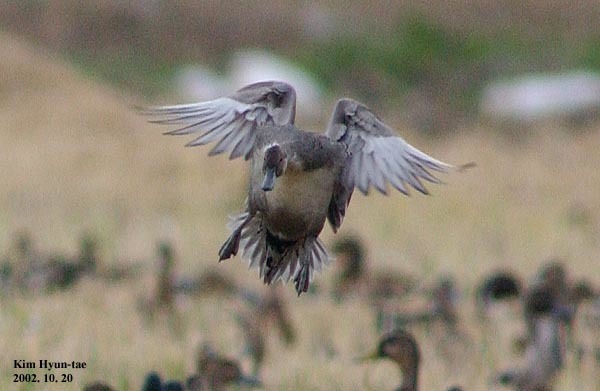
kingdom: Animalia
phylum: Chordata
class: Aves
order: Anseriformes
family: Anatidae
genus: Anas
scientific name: Anas acuta
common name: Northern pintail
